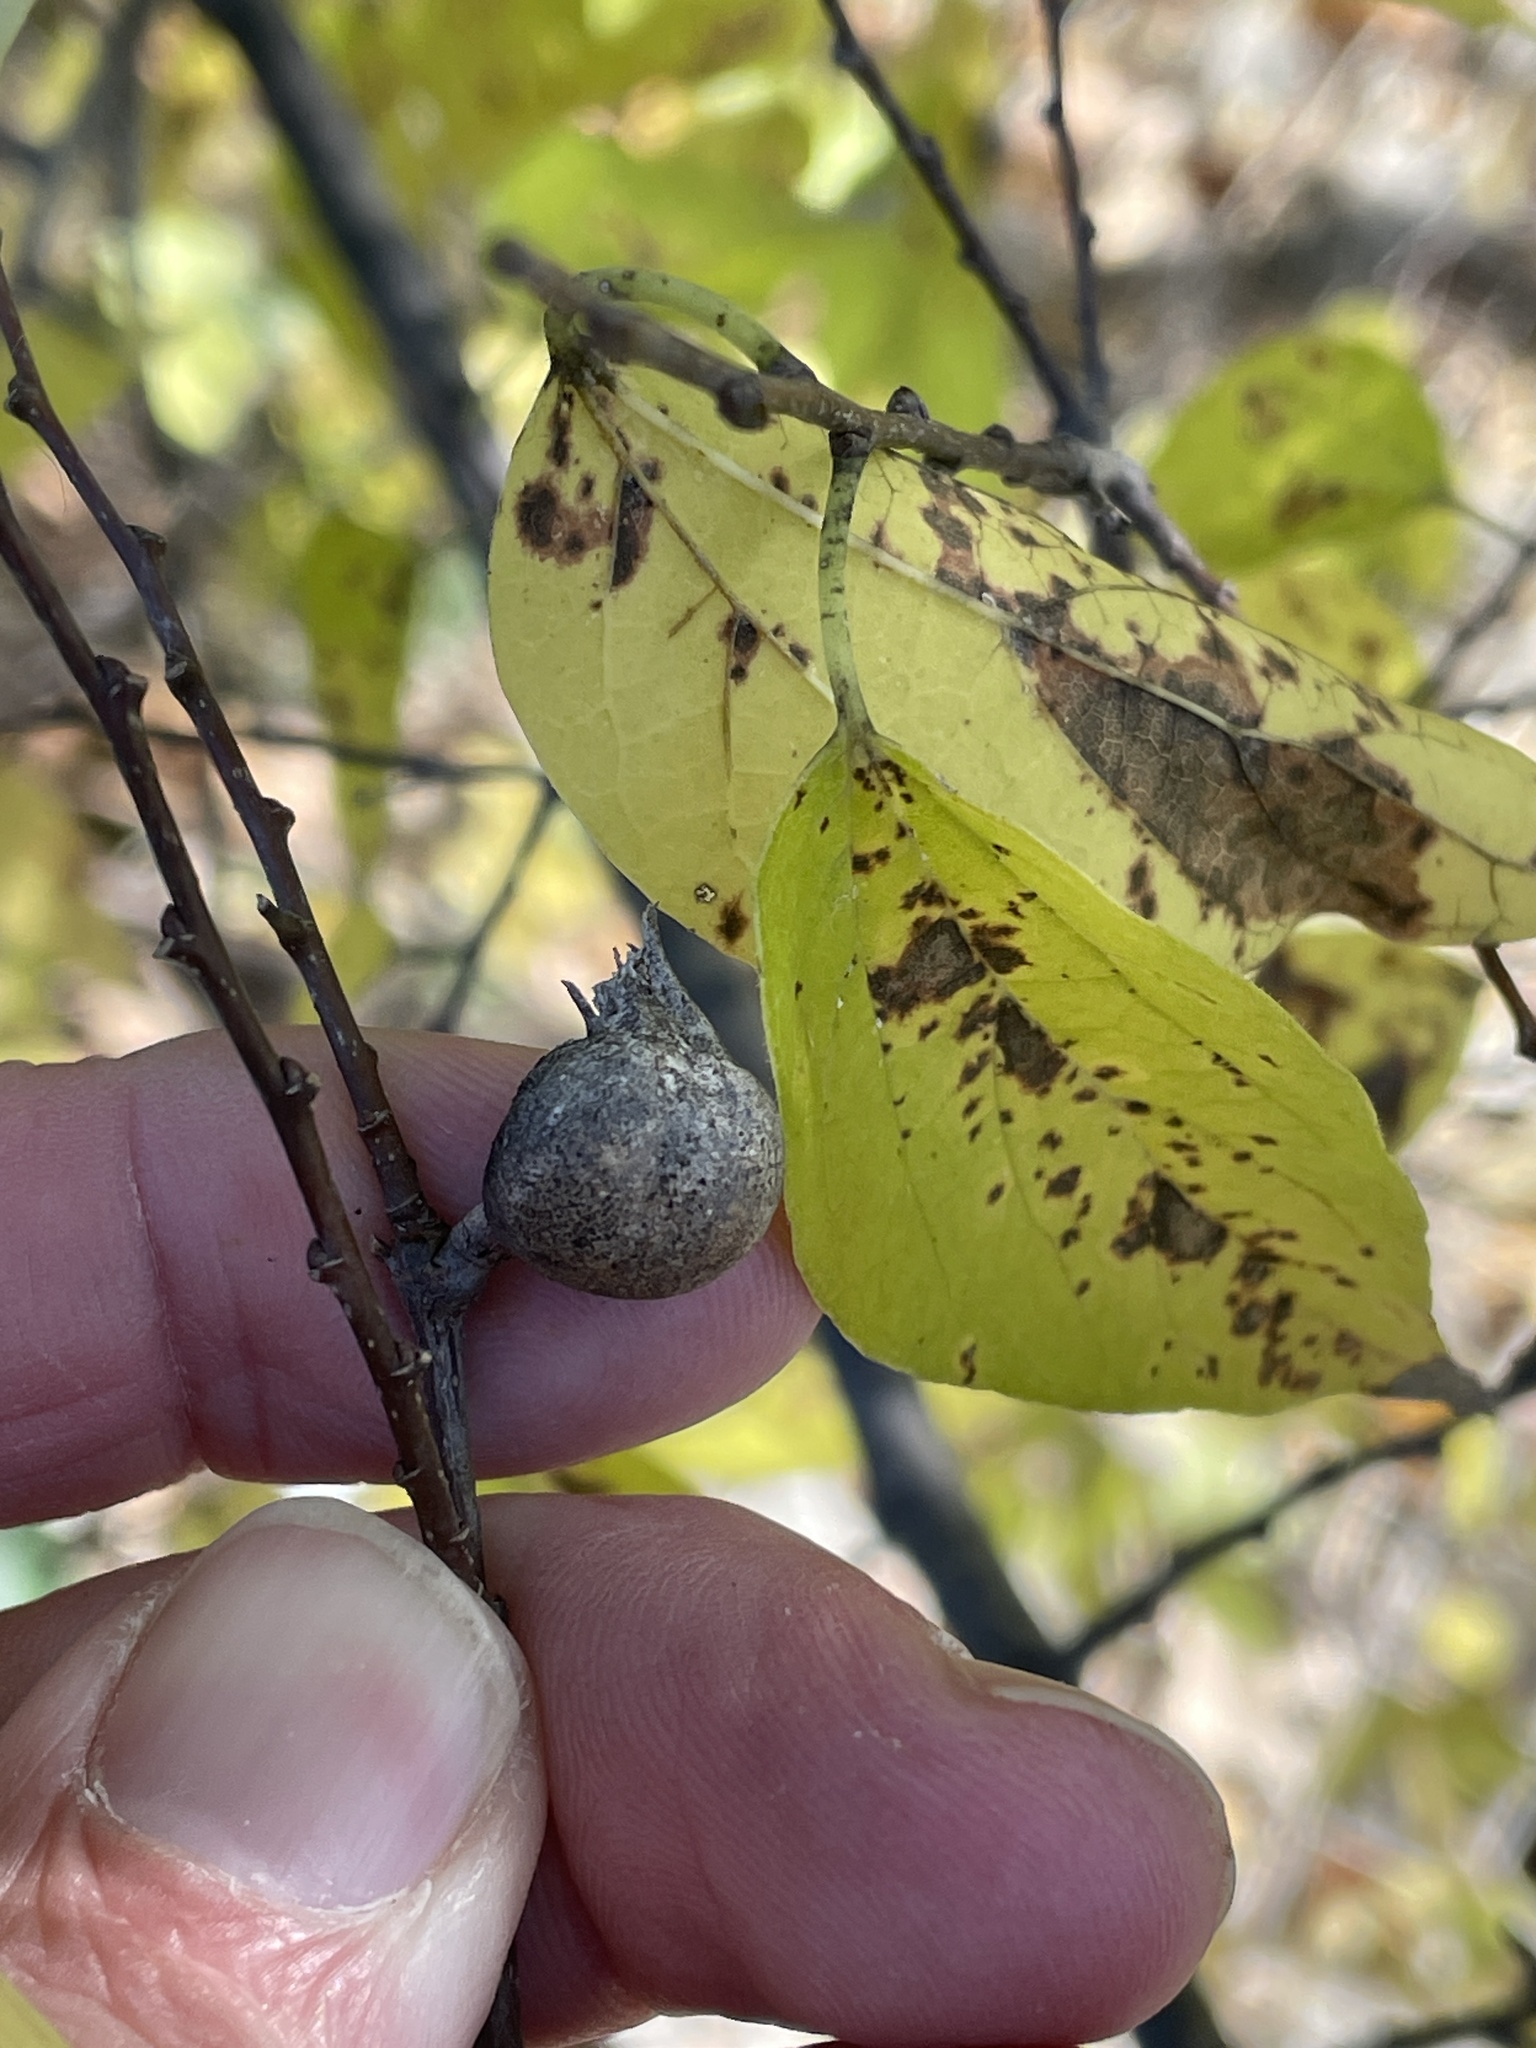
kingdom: Animalia
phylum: Arthropoda
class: Insecta
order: Hemiptera
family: Aphalaridae
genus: Pachypsylla
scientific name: Pachypsylla venusta
